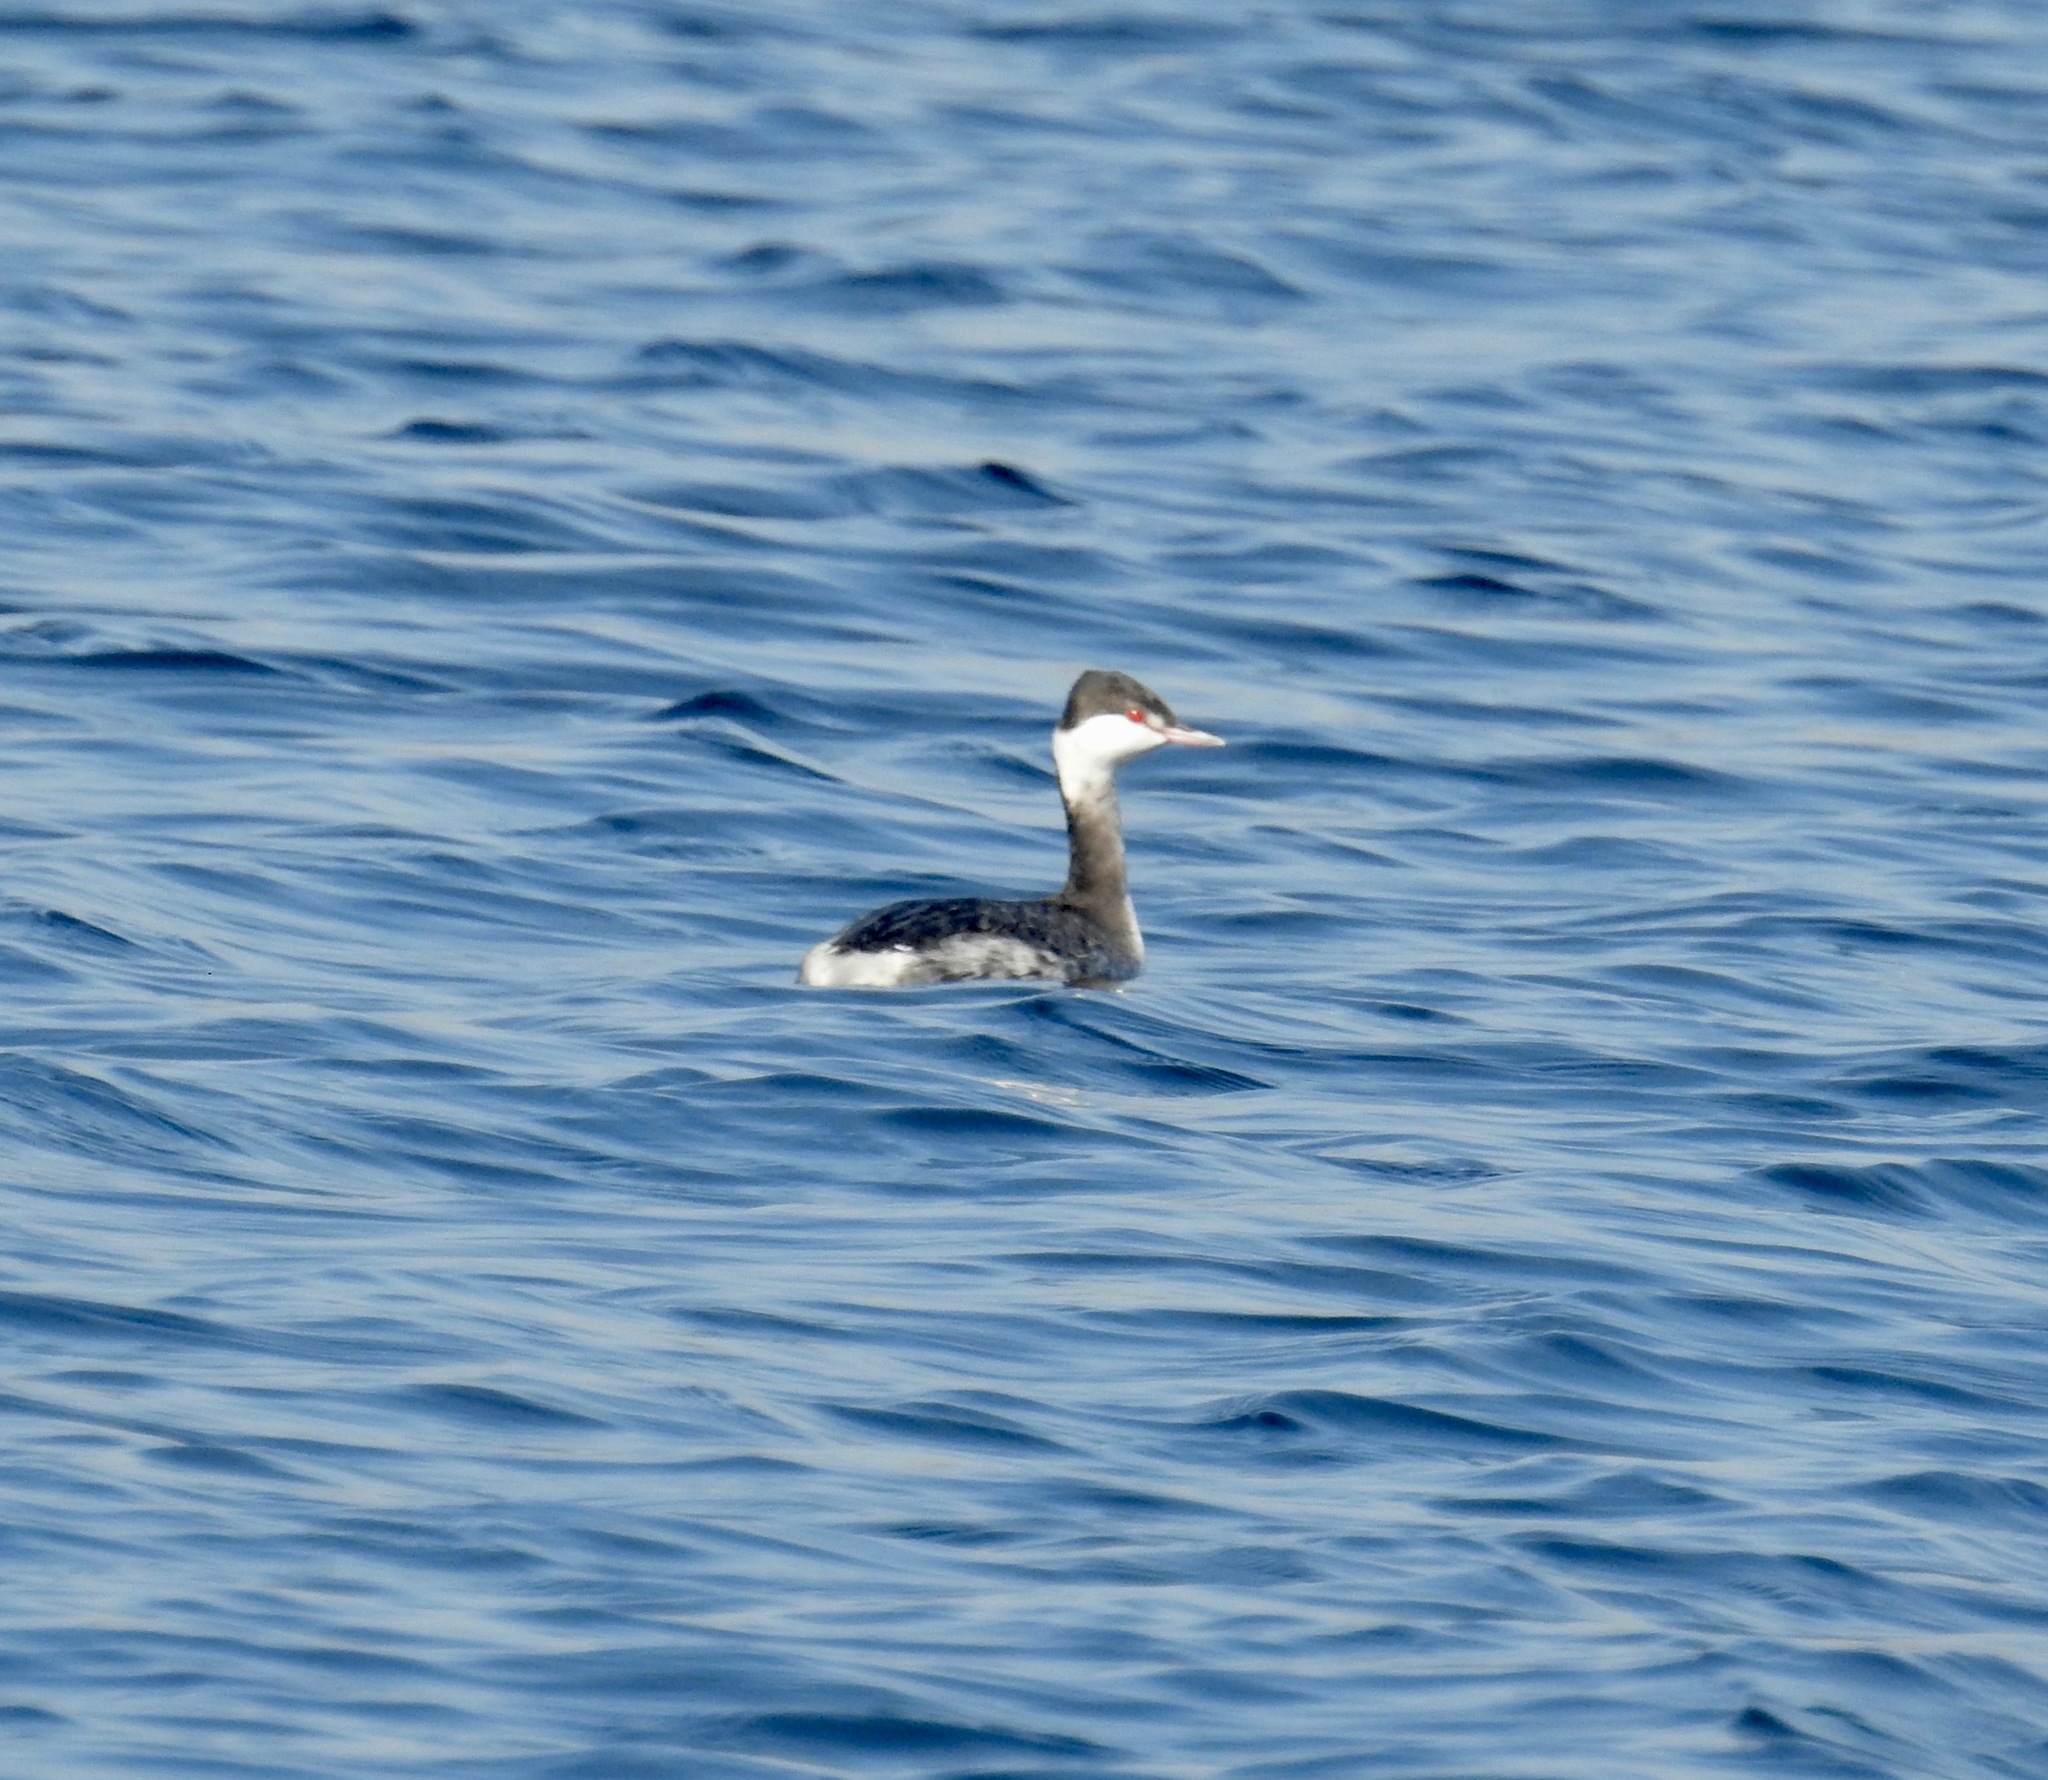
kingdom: Animalia
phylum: Chordata
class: Aves
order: Podicipediformes
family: Podicipedidae
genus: Podiceps
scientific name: Podiceps auritus
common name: Horned grebe
